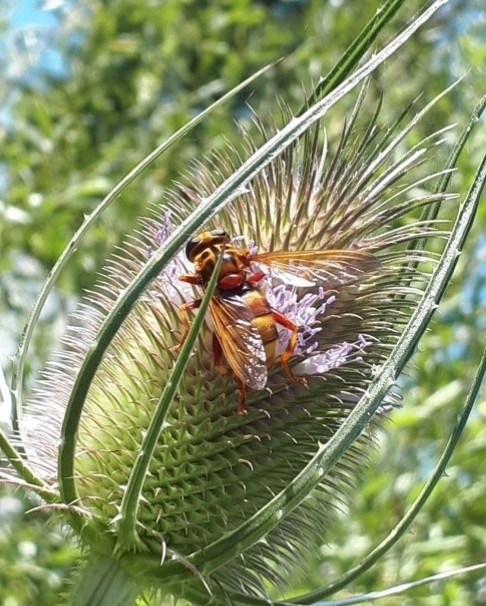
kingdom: Animalia
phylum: Arthropoda
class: Insecta
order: Diptera
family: Syrphidae
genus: Milesia
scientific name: Milesia crabroniformis
